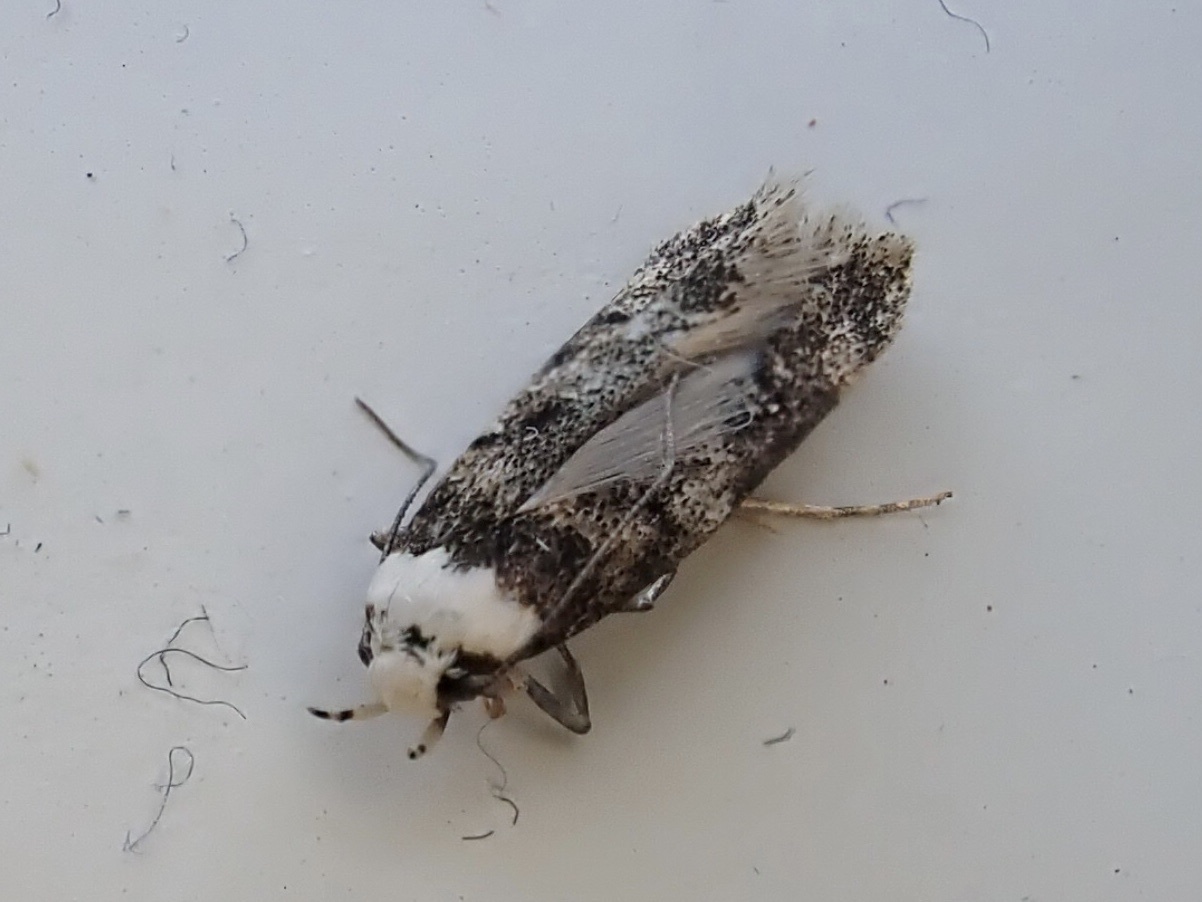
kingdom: Animalia
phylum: Arthropoda
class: Insecta
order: Lepidoptera
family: Oecophoridae
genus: Endrosis
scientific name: Endrosis sarcitrella
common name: White-shouldered house moth
